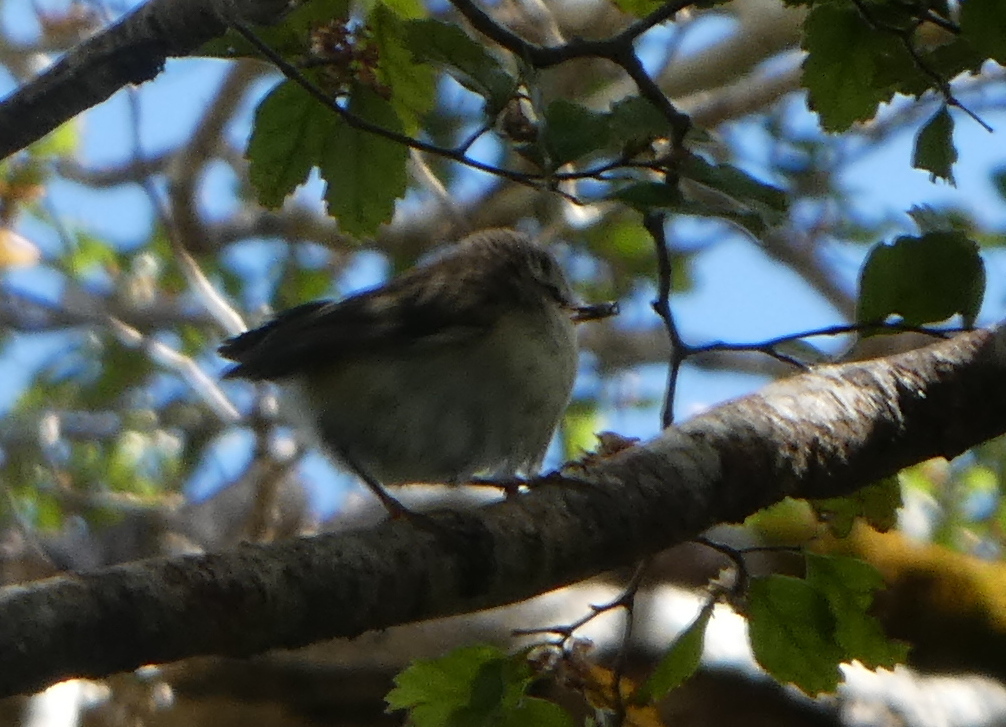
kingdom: Animalia
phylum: Chordata
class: Aves
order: Passeriformes
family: Acanthisittidae
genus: Acanthisitta
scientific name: Acanthisitta chloris
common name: Rifleman
